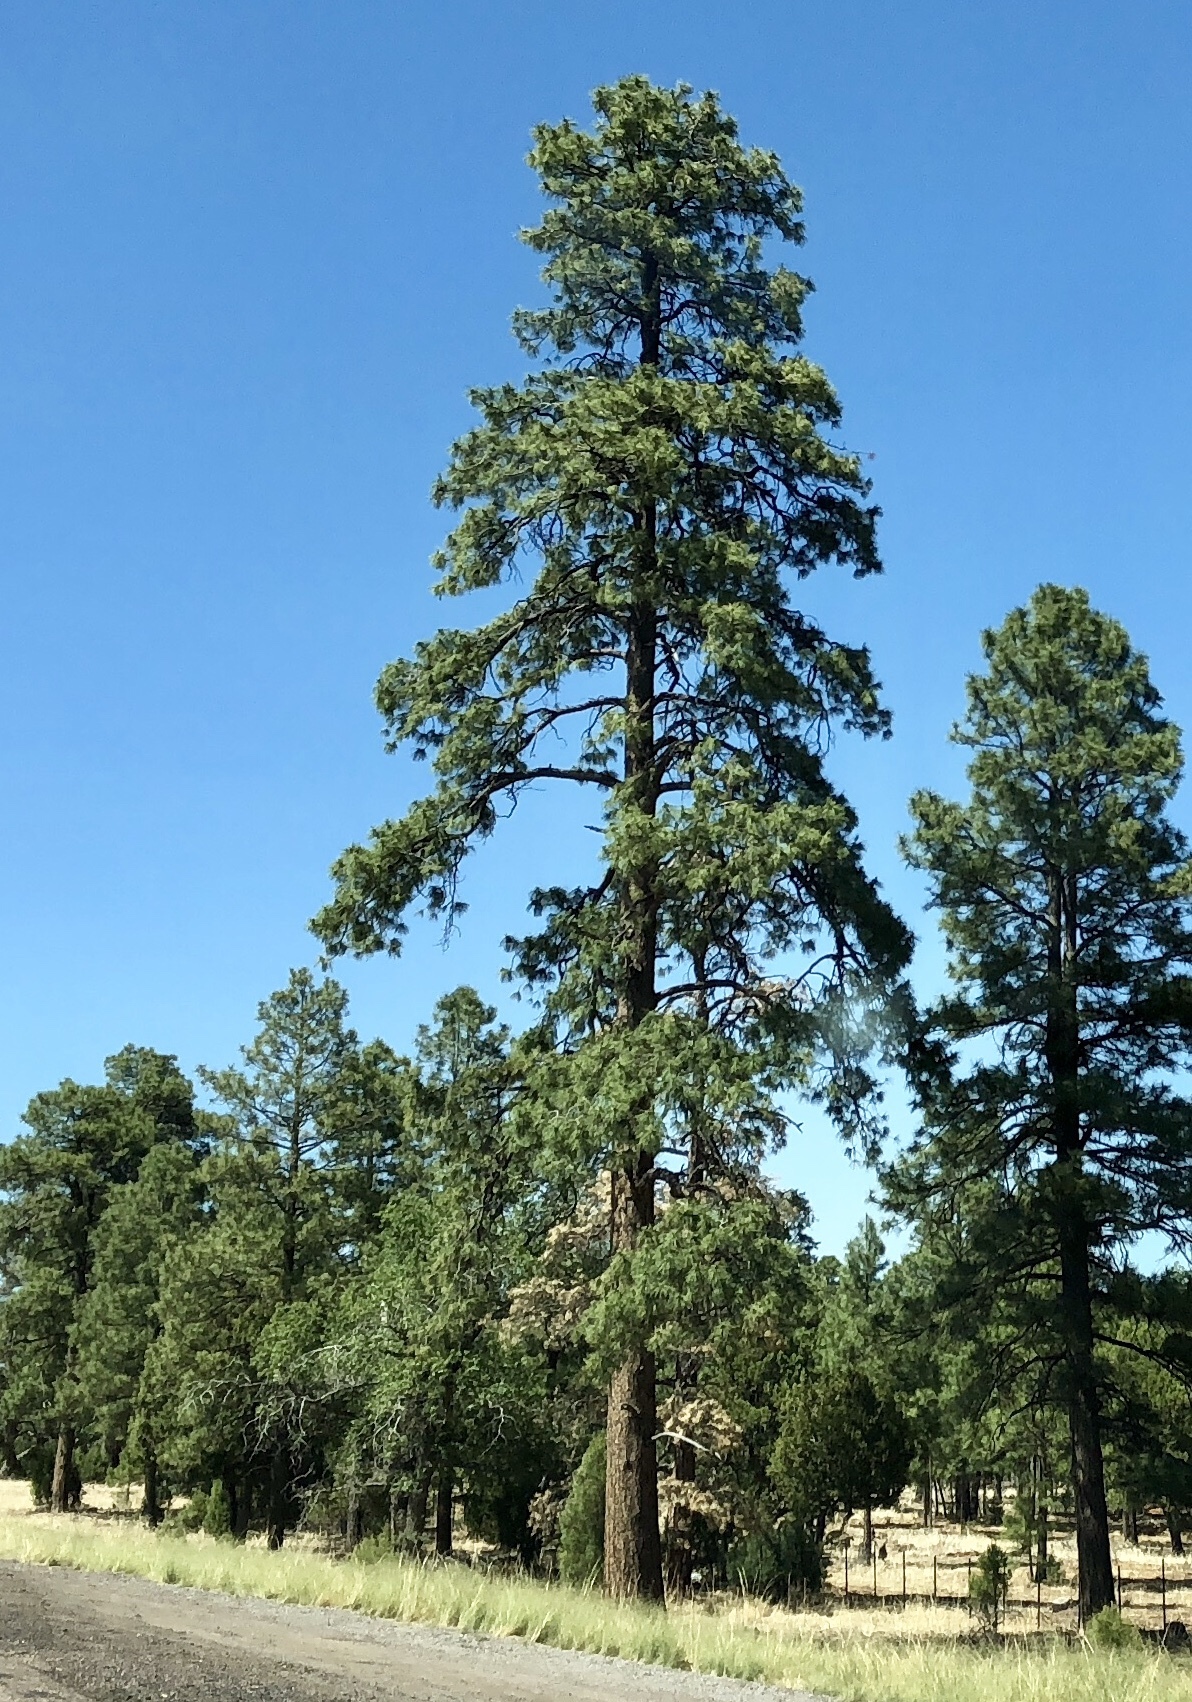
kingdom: Plantae
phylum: Tracheophyta
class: Pinopsida
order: Pinales
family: Pinaceae
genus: Pinus
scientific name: Pinus ponderosa
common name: Western yellow-pine
